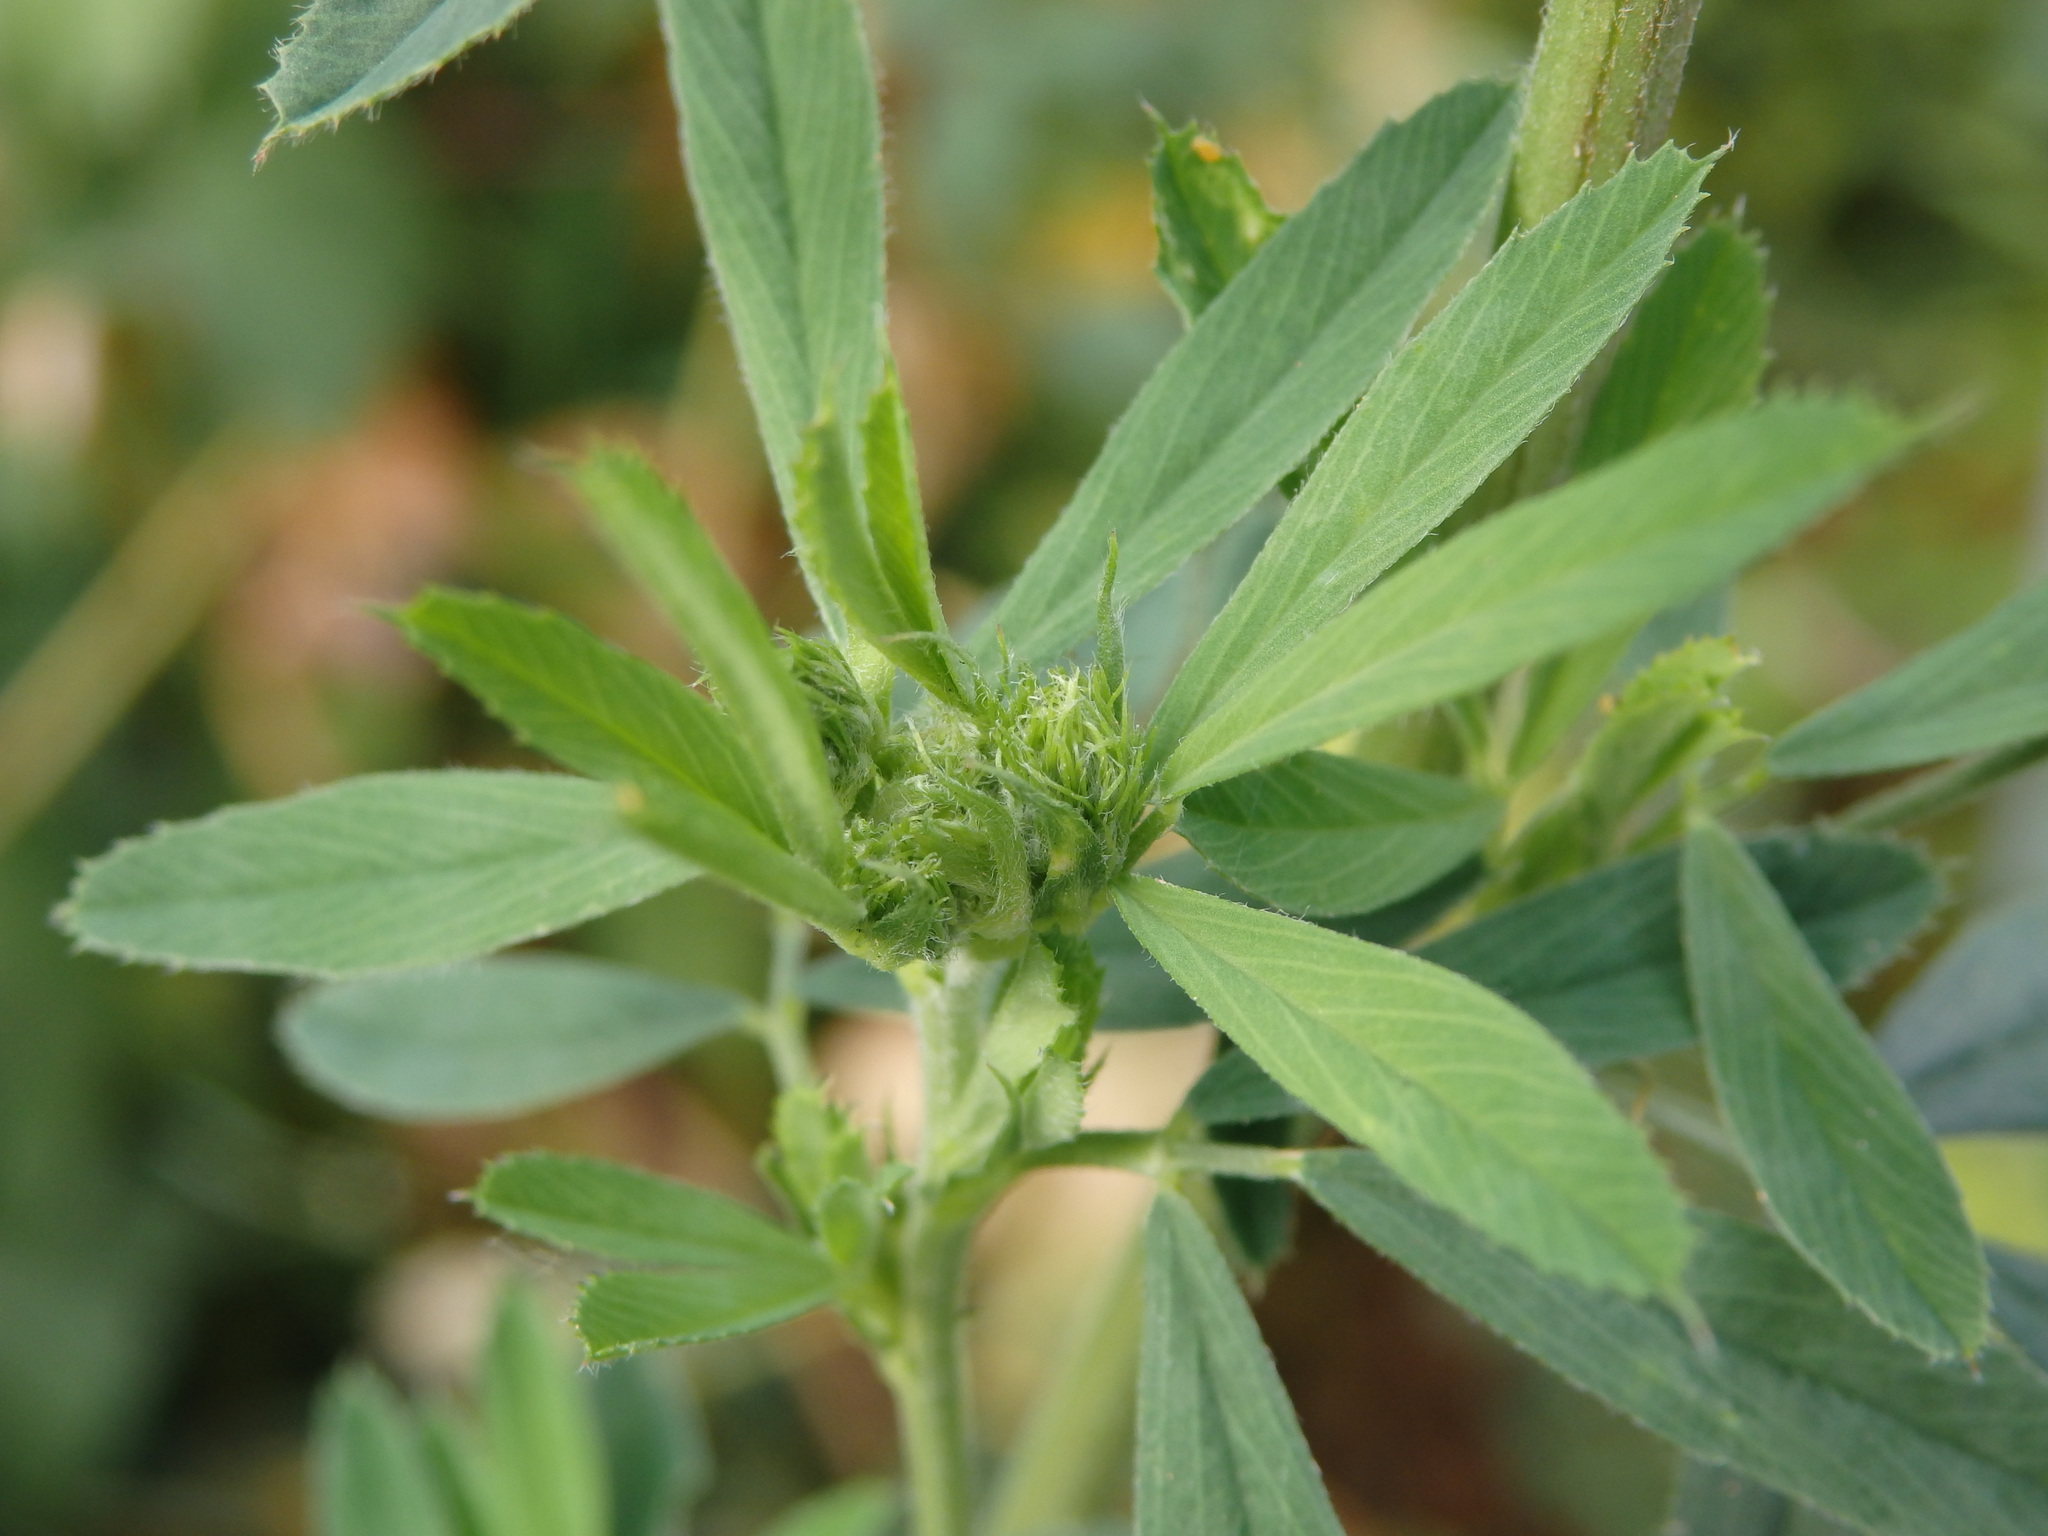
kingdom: Plantae
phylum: Tracheophyta
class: Magnoliopsida
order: Fabales
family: Fabaceae
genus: Medicago
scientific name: Medicago sativa
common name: Alfalfa
